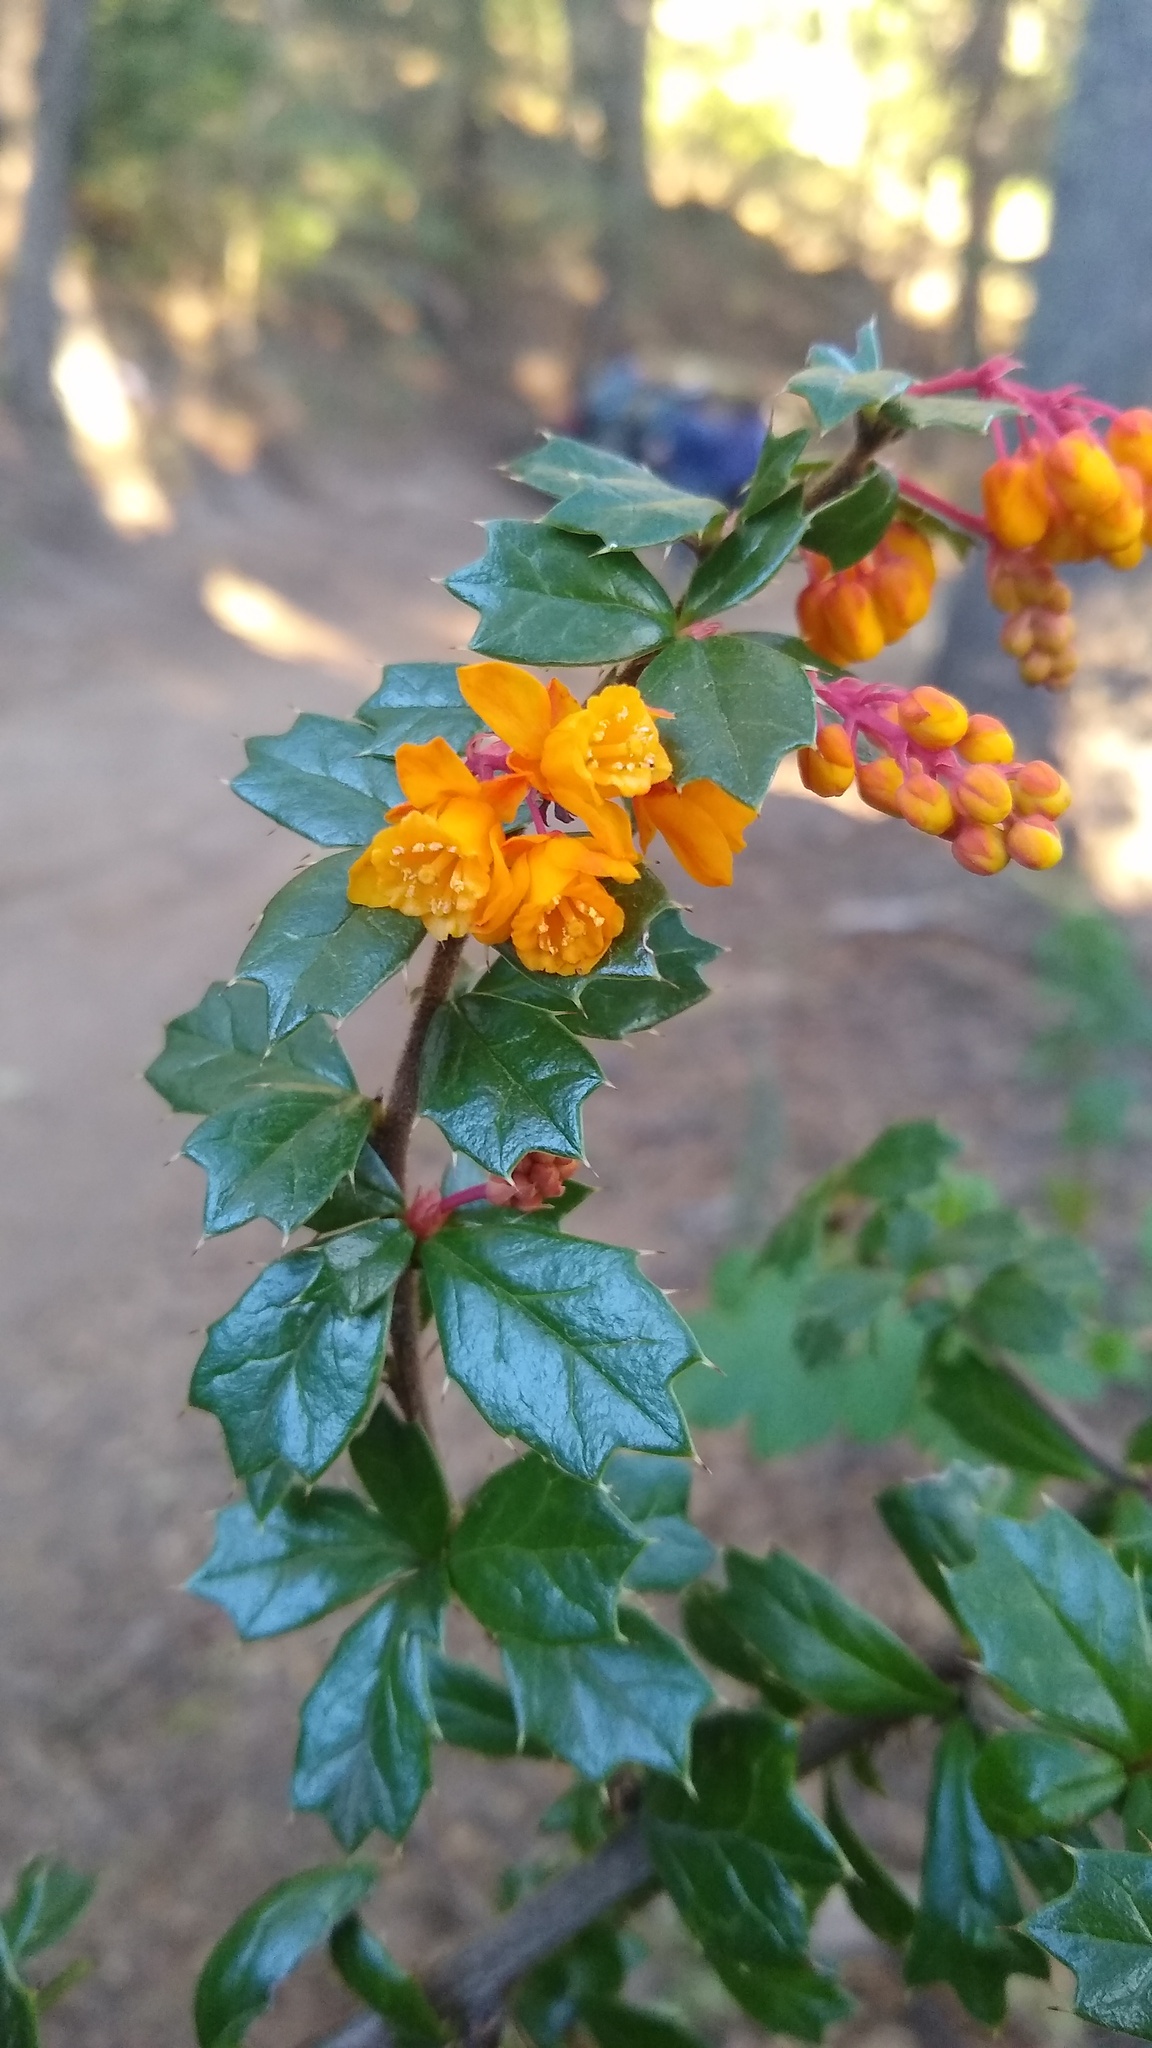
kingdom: Plantae
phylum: Tracheophyta
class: Magnoliopsida
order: Ranunculales
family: Berberidaceae
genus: Berberis
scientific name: Berberis darwinii
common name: Darwin's barberry
